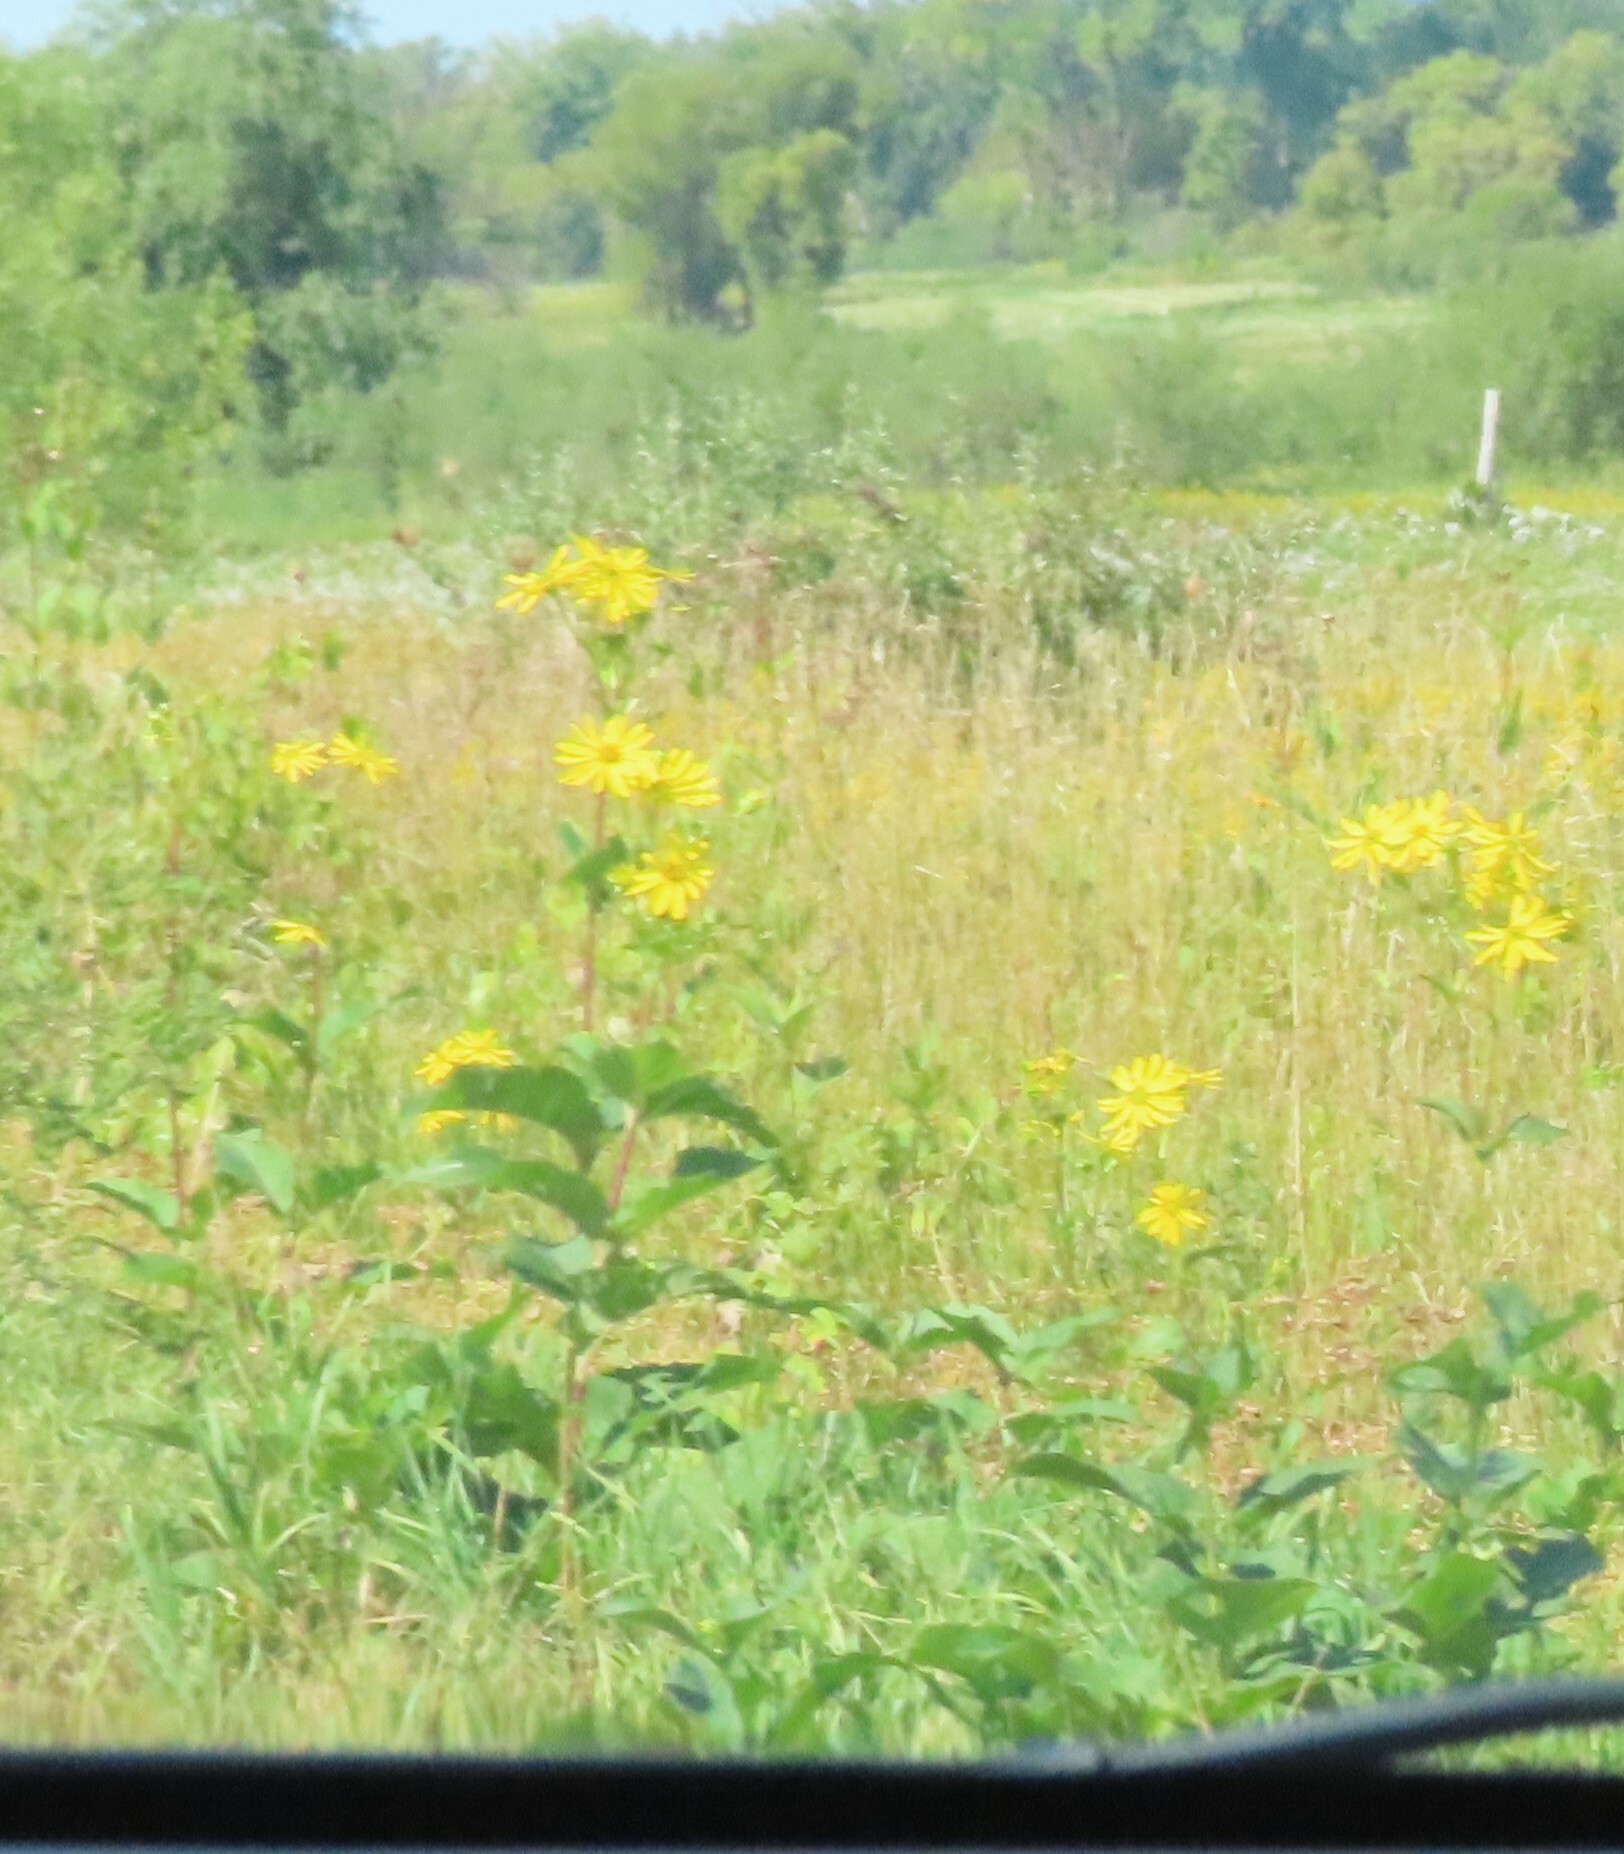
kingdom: Plantae
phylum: Tracheophyta
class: Magnoliopsida
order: Asterales
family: Asteraceae
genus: Silphium
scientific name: Silphium perfoliatum
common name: Cup-plant
